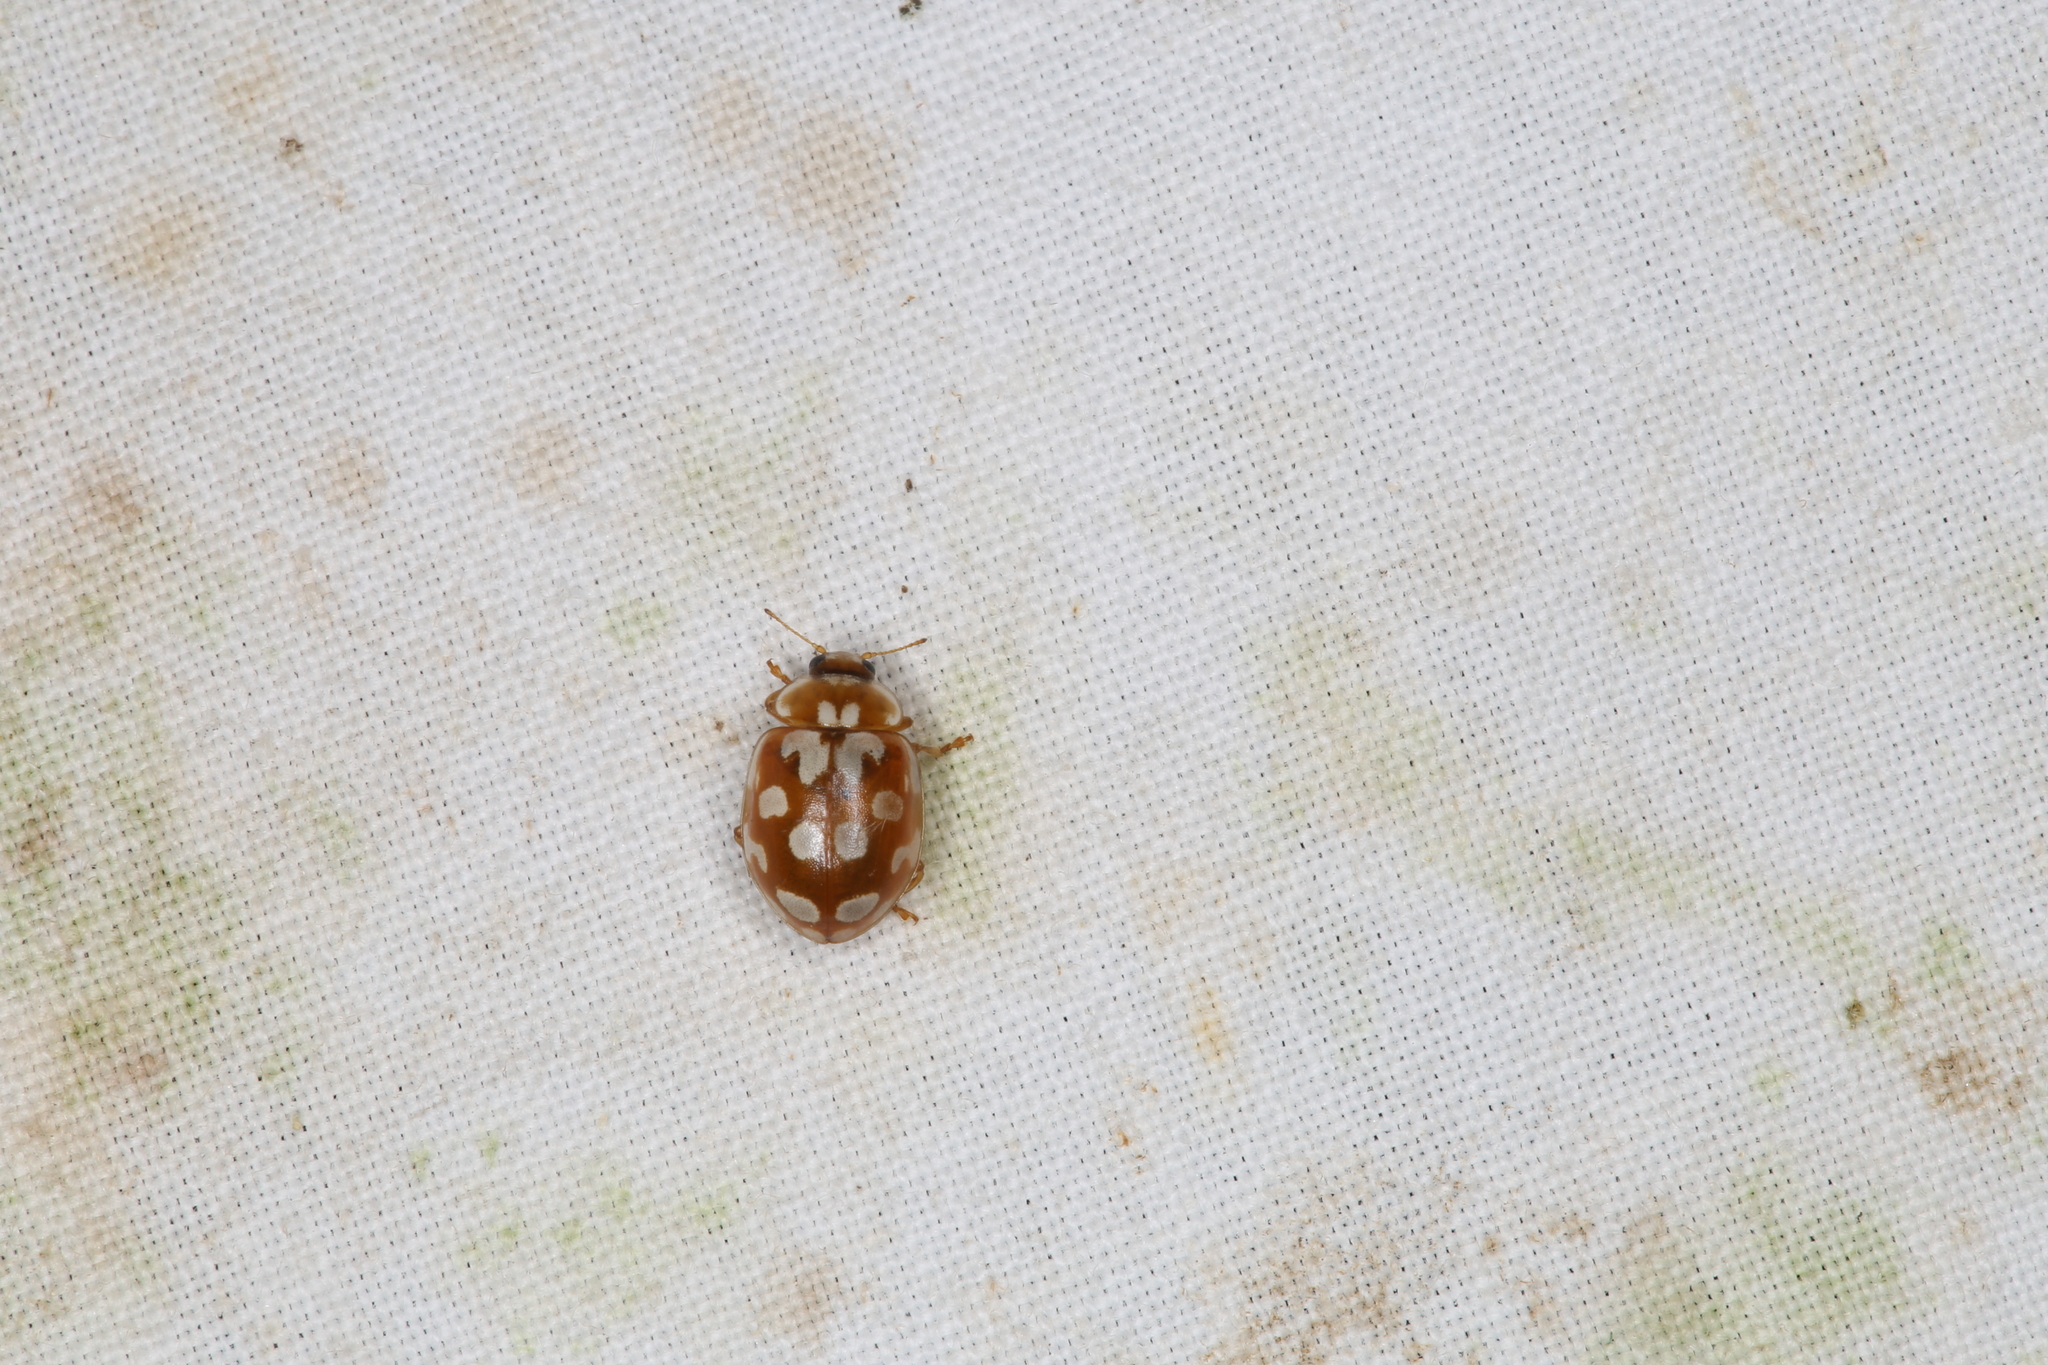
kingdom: Animalia
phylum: Arthropoda
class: Insecta
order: Coleoptera
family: Coccinellidae
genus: Myrrha
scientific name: Myrrha octodecimguttata
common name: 18-spot ladybird
